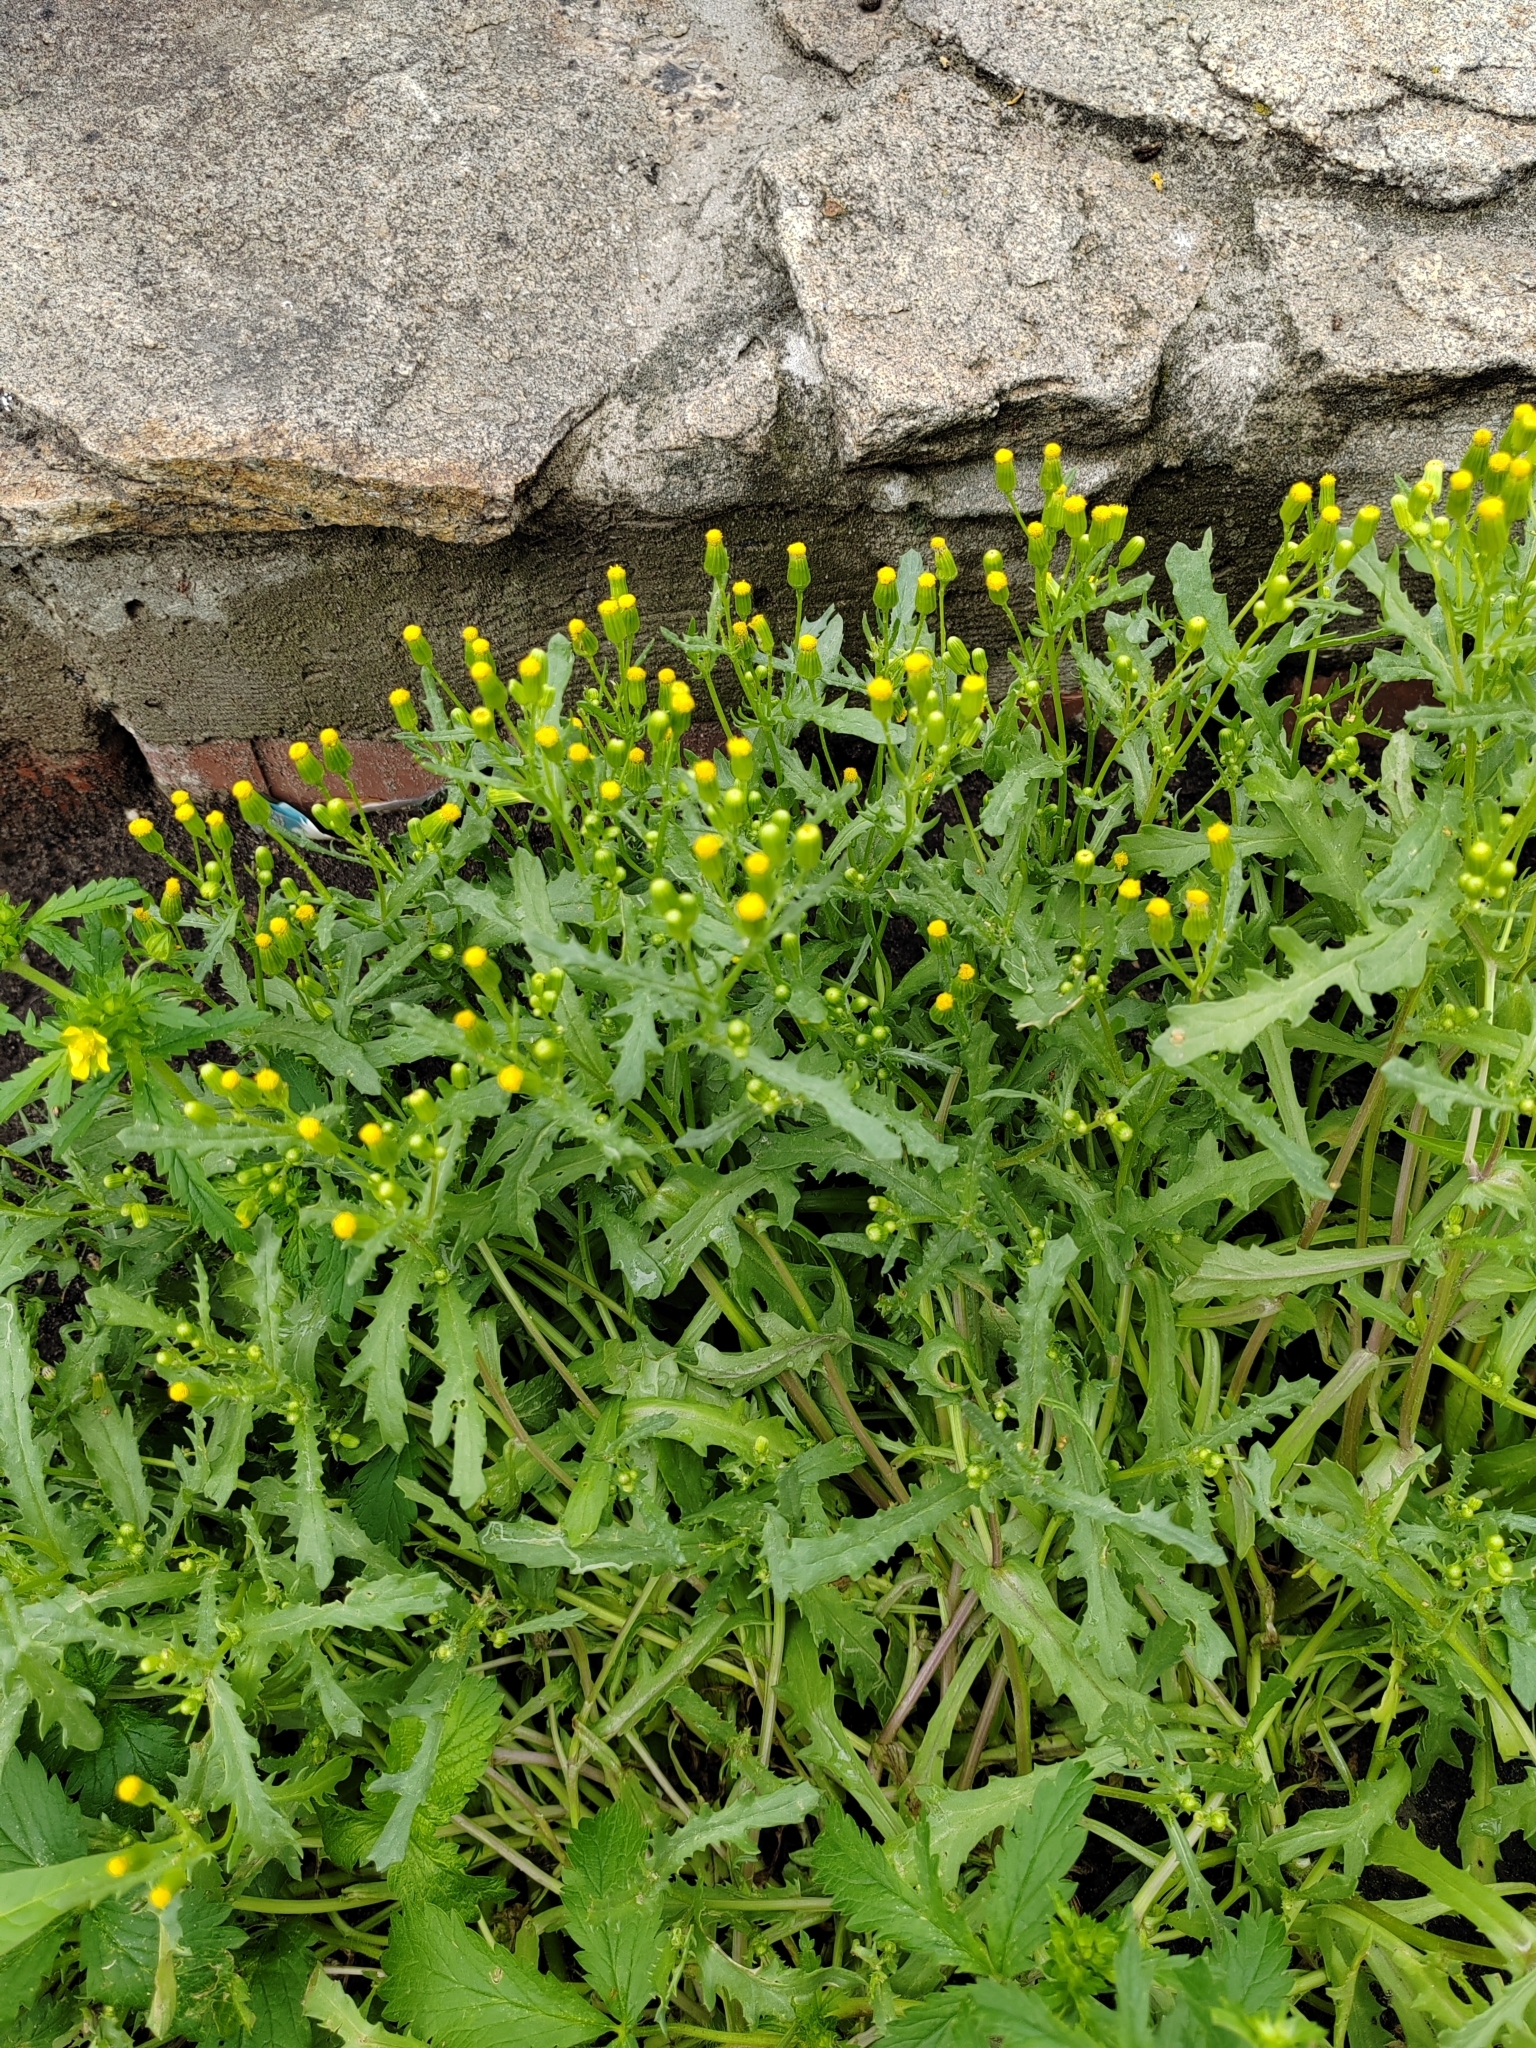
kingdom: Plantae
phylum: Tracheophyta
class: Magnoliopsida
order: Asterales
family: Asteraceae
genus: Senecio
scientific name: Senecio dubitabilis
